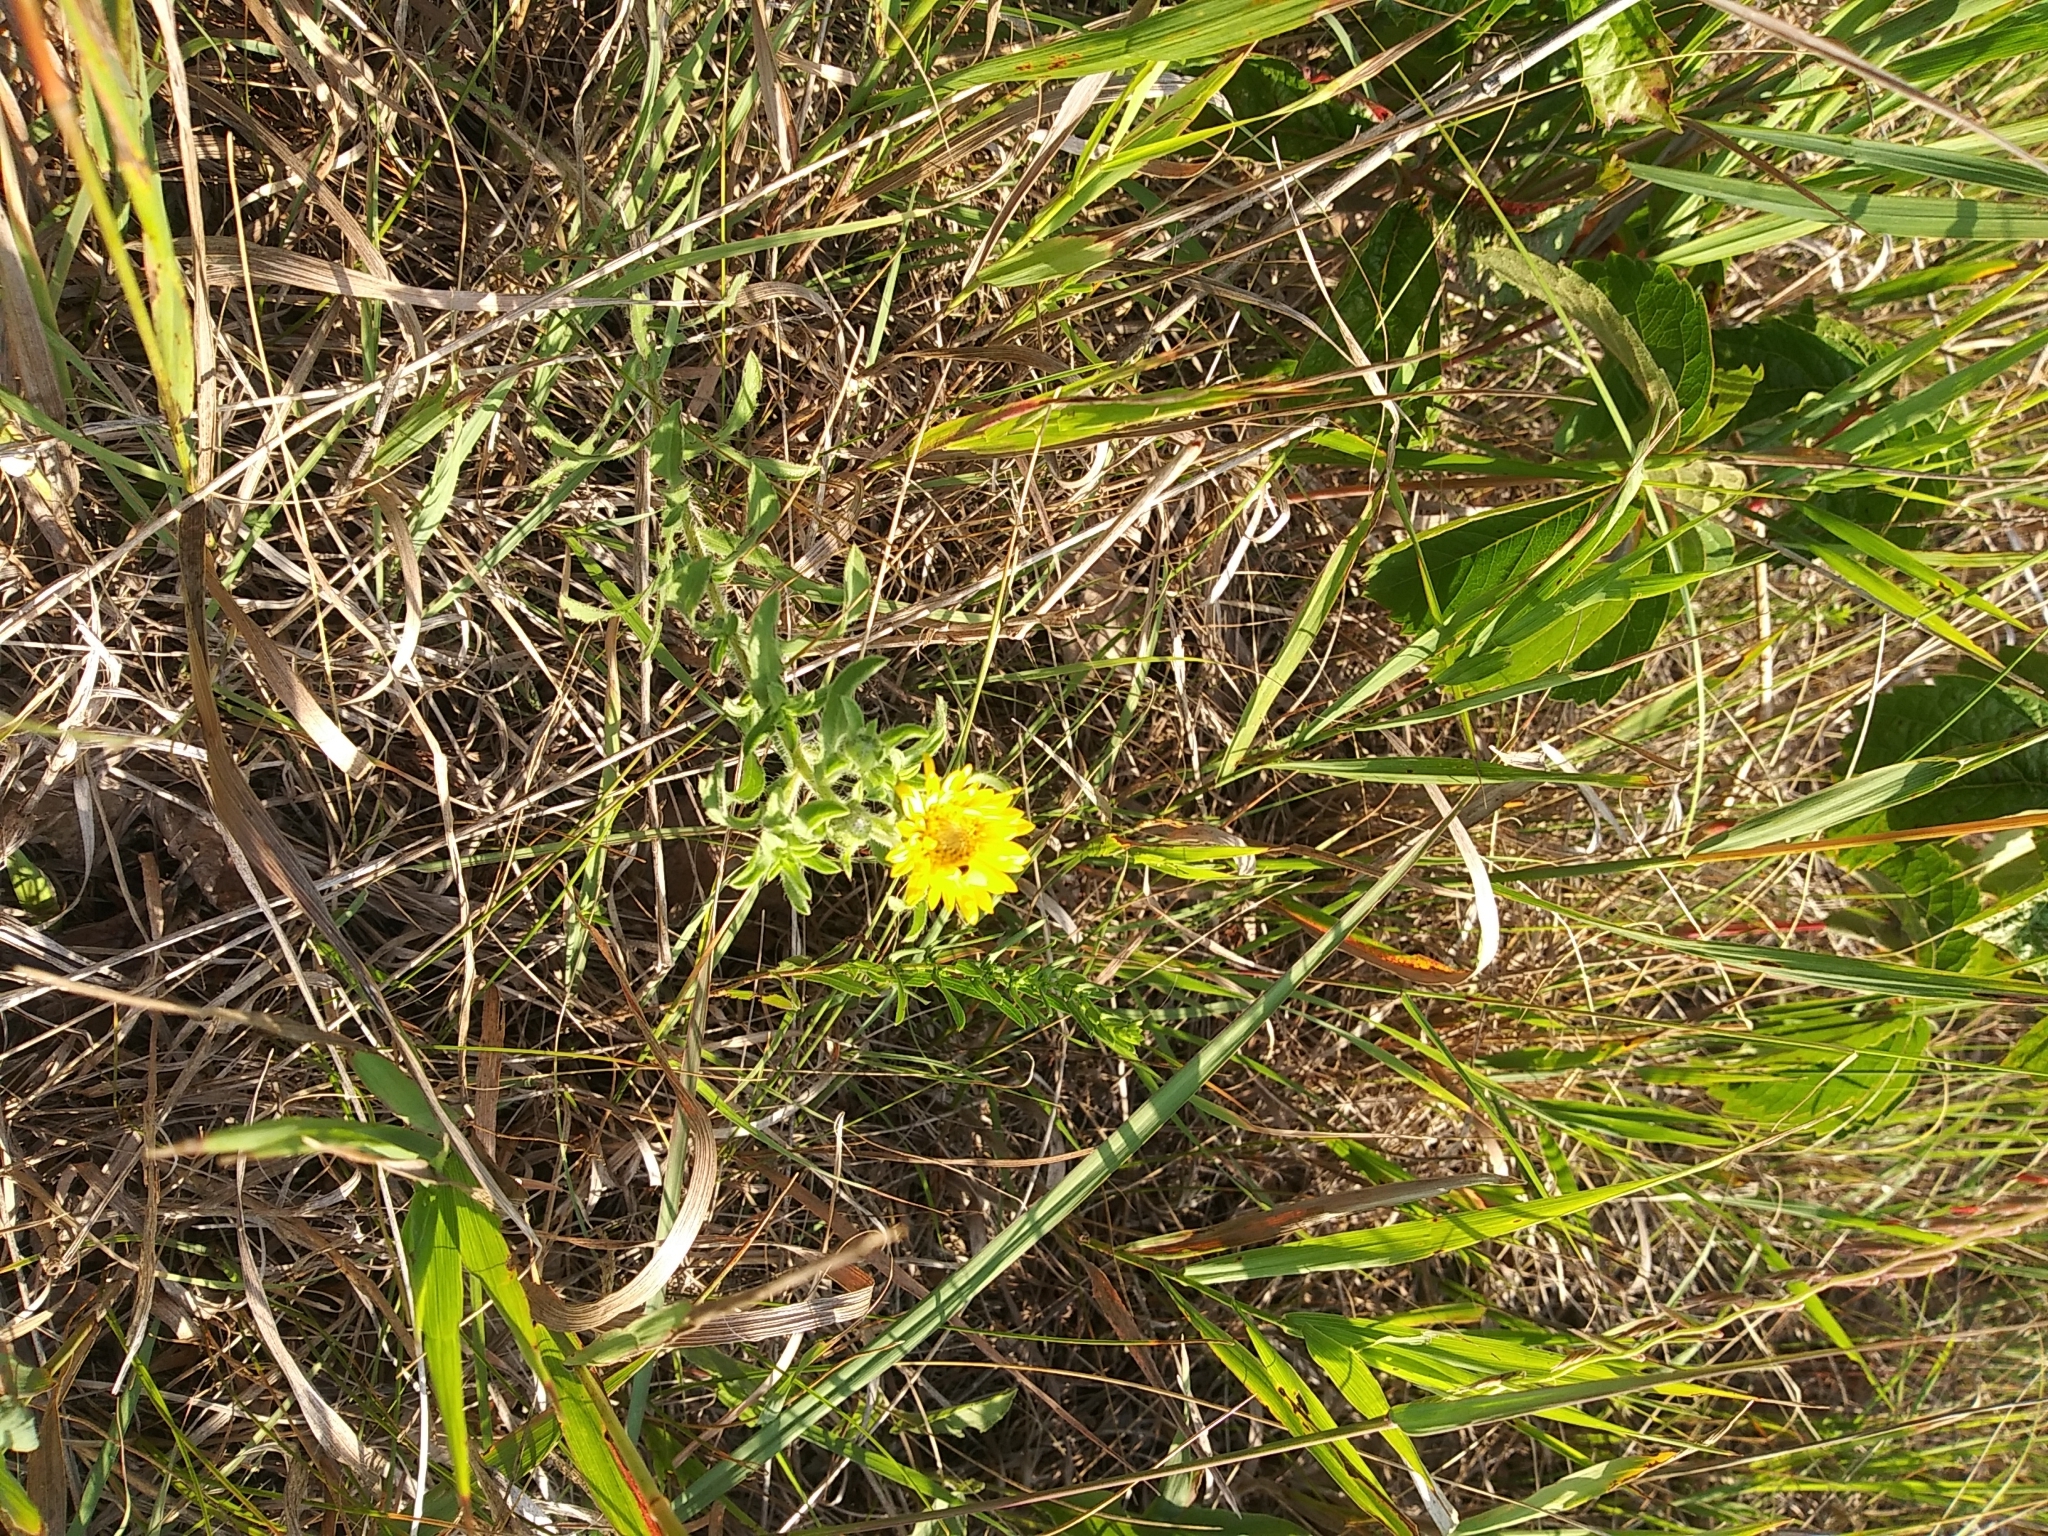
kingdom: Plantae
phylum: Tracheophyta
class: Magnoliopsida
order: Asterales
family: Asteraceae
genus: Grindelia
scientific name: Grindelia squarrosa
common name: Curly-cup gumweed
